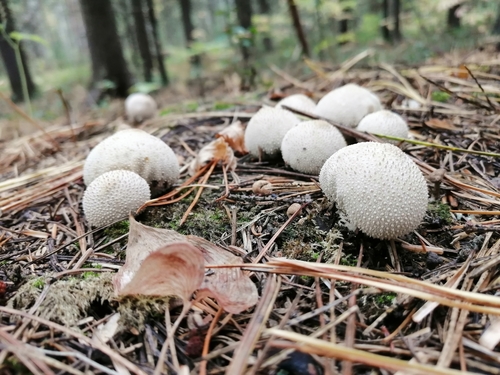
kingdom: Fungi
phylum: Basidiomycota
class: Agaricomycetes
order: Agaricales
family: Lycoperdaceae
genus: Lycoperdon
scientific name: Lycoperdon perlatum
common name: Common puffball
